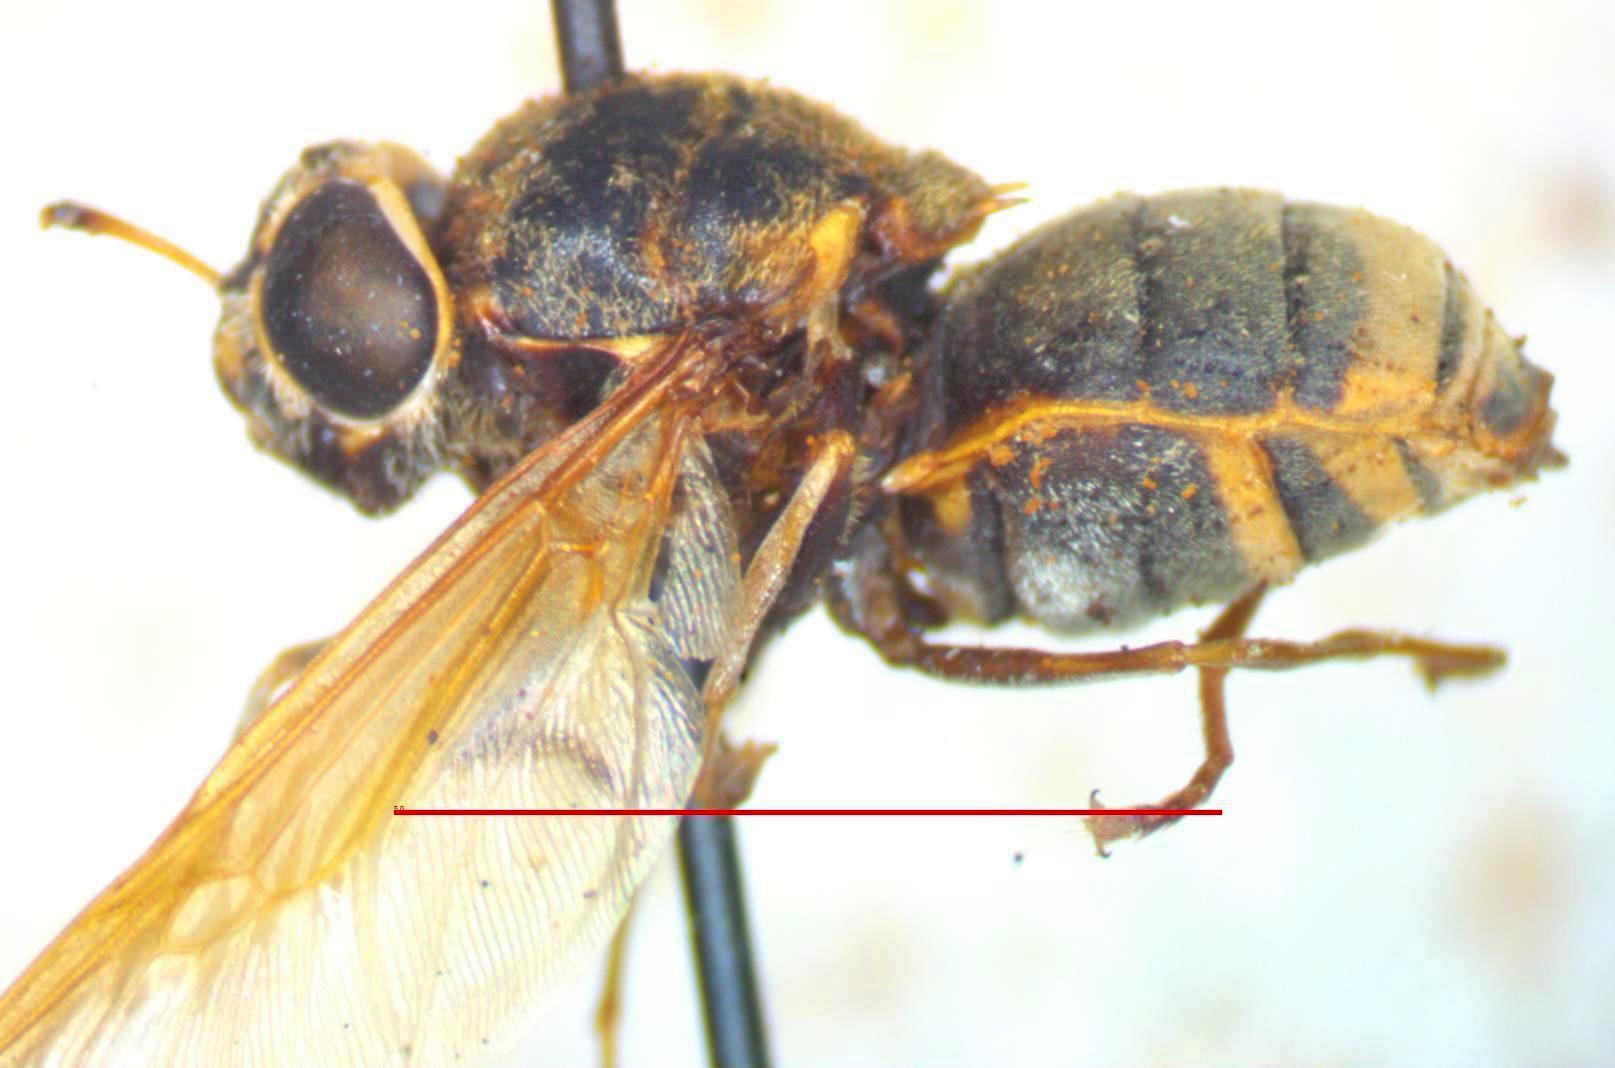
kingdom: Animalia
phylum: Arthropoda
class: Insecta
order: Diptera
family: Stratiomyidae
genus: Hoplitimyia
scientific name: Hoplitimyia mutabilis
